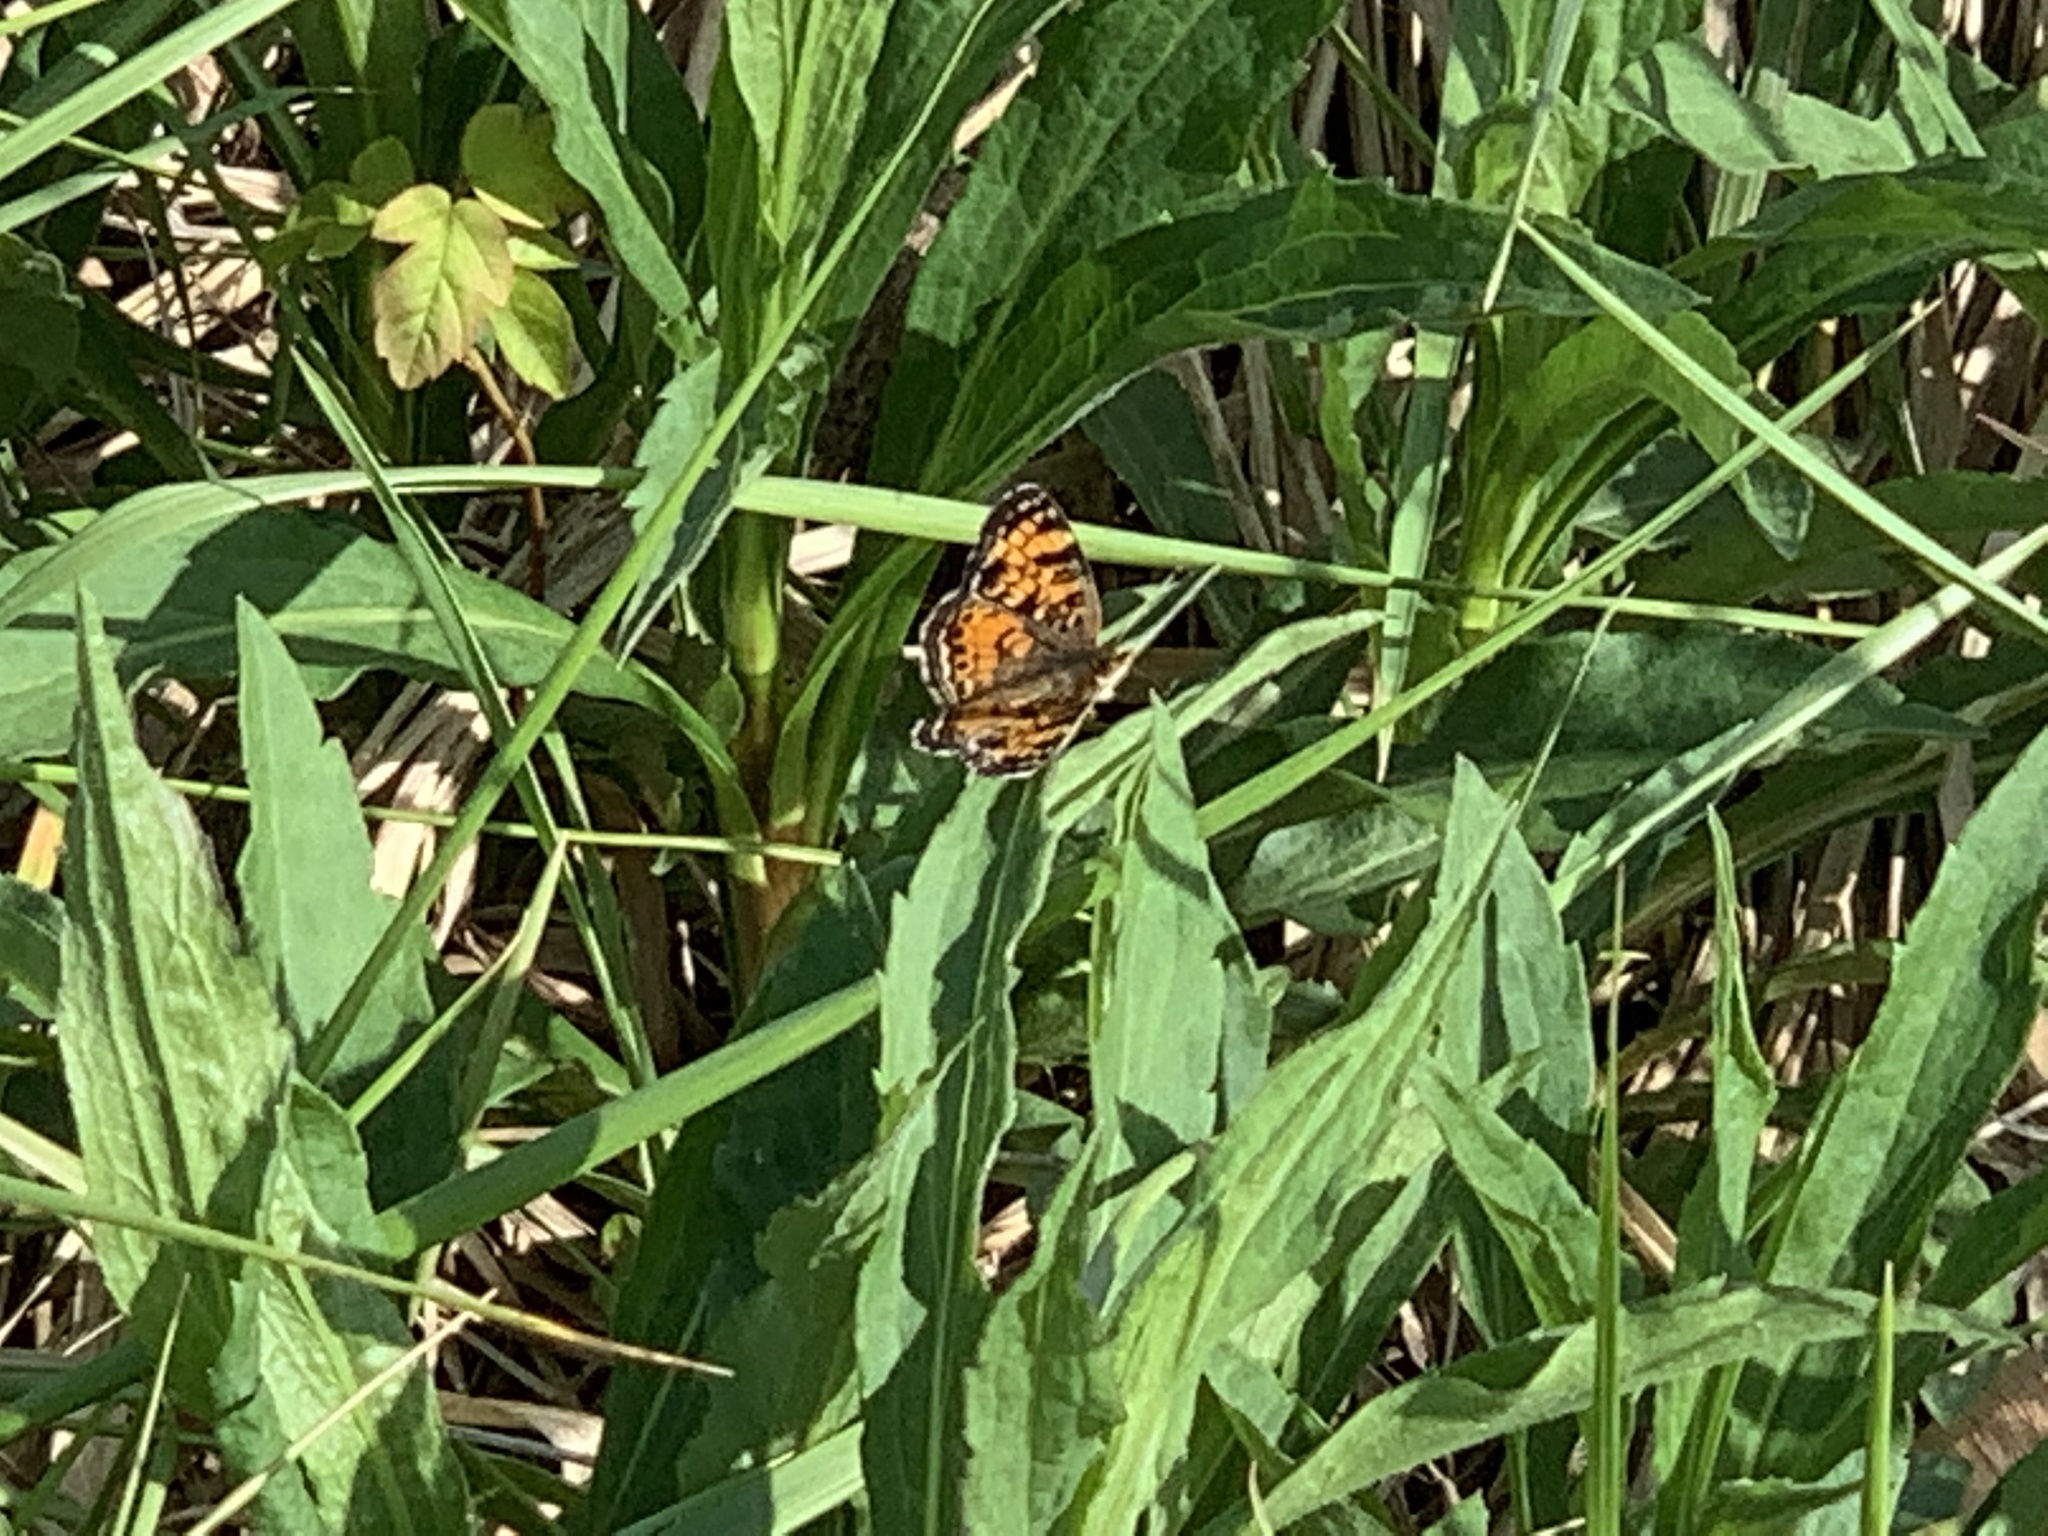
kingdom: Animalia
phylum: Arthropoda
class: Insecta
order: Lepidoptera
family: Nymphalidae
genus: Phyciodes
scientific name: Phyciodes tharos
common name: Pearl crescent
